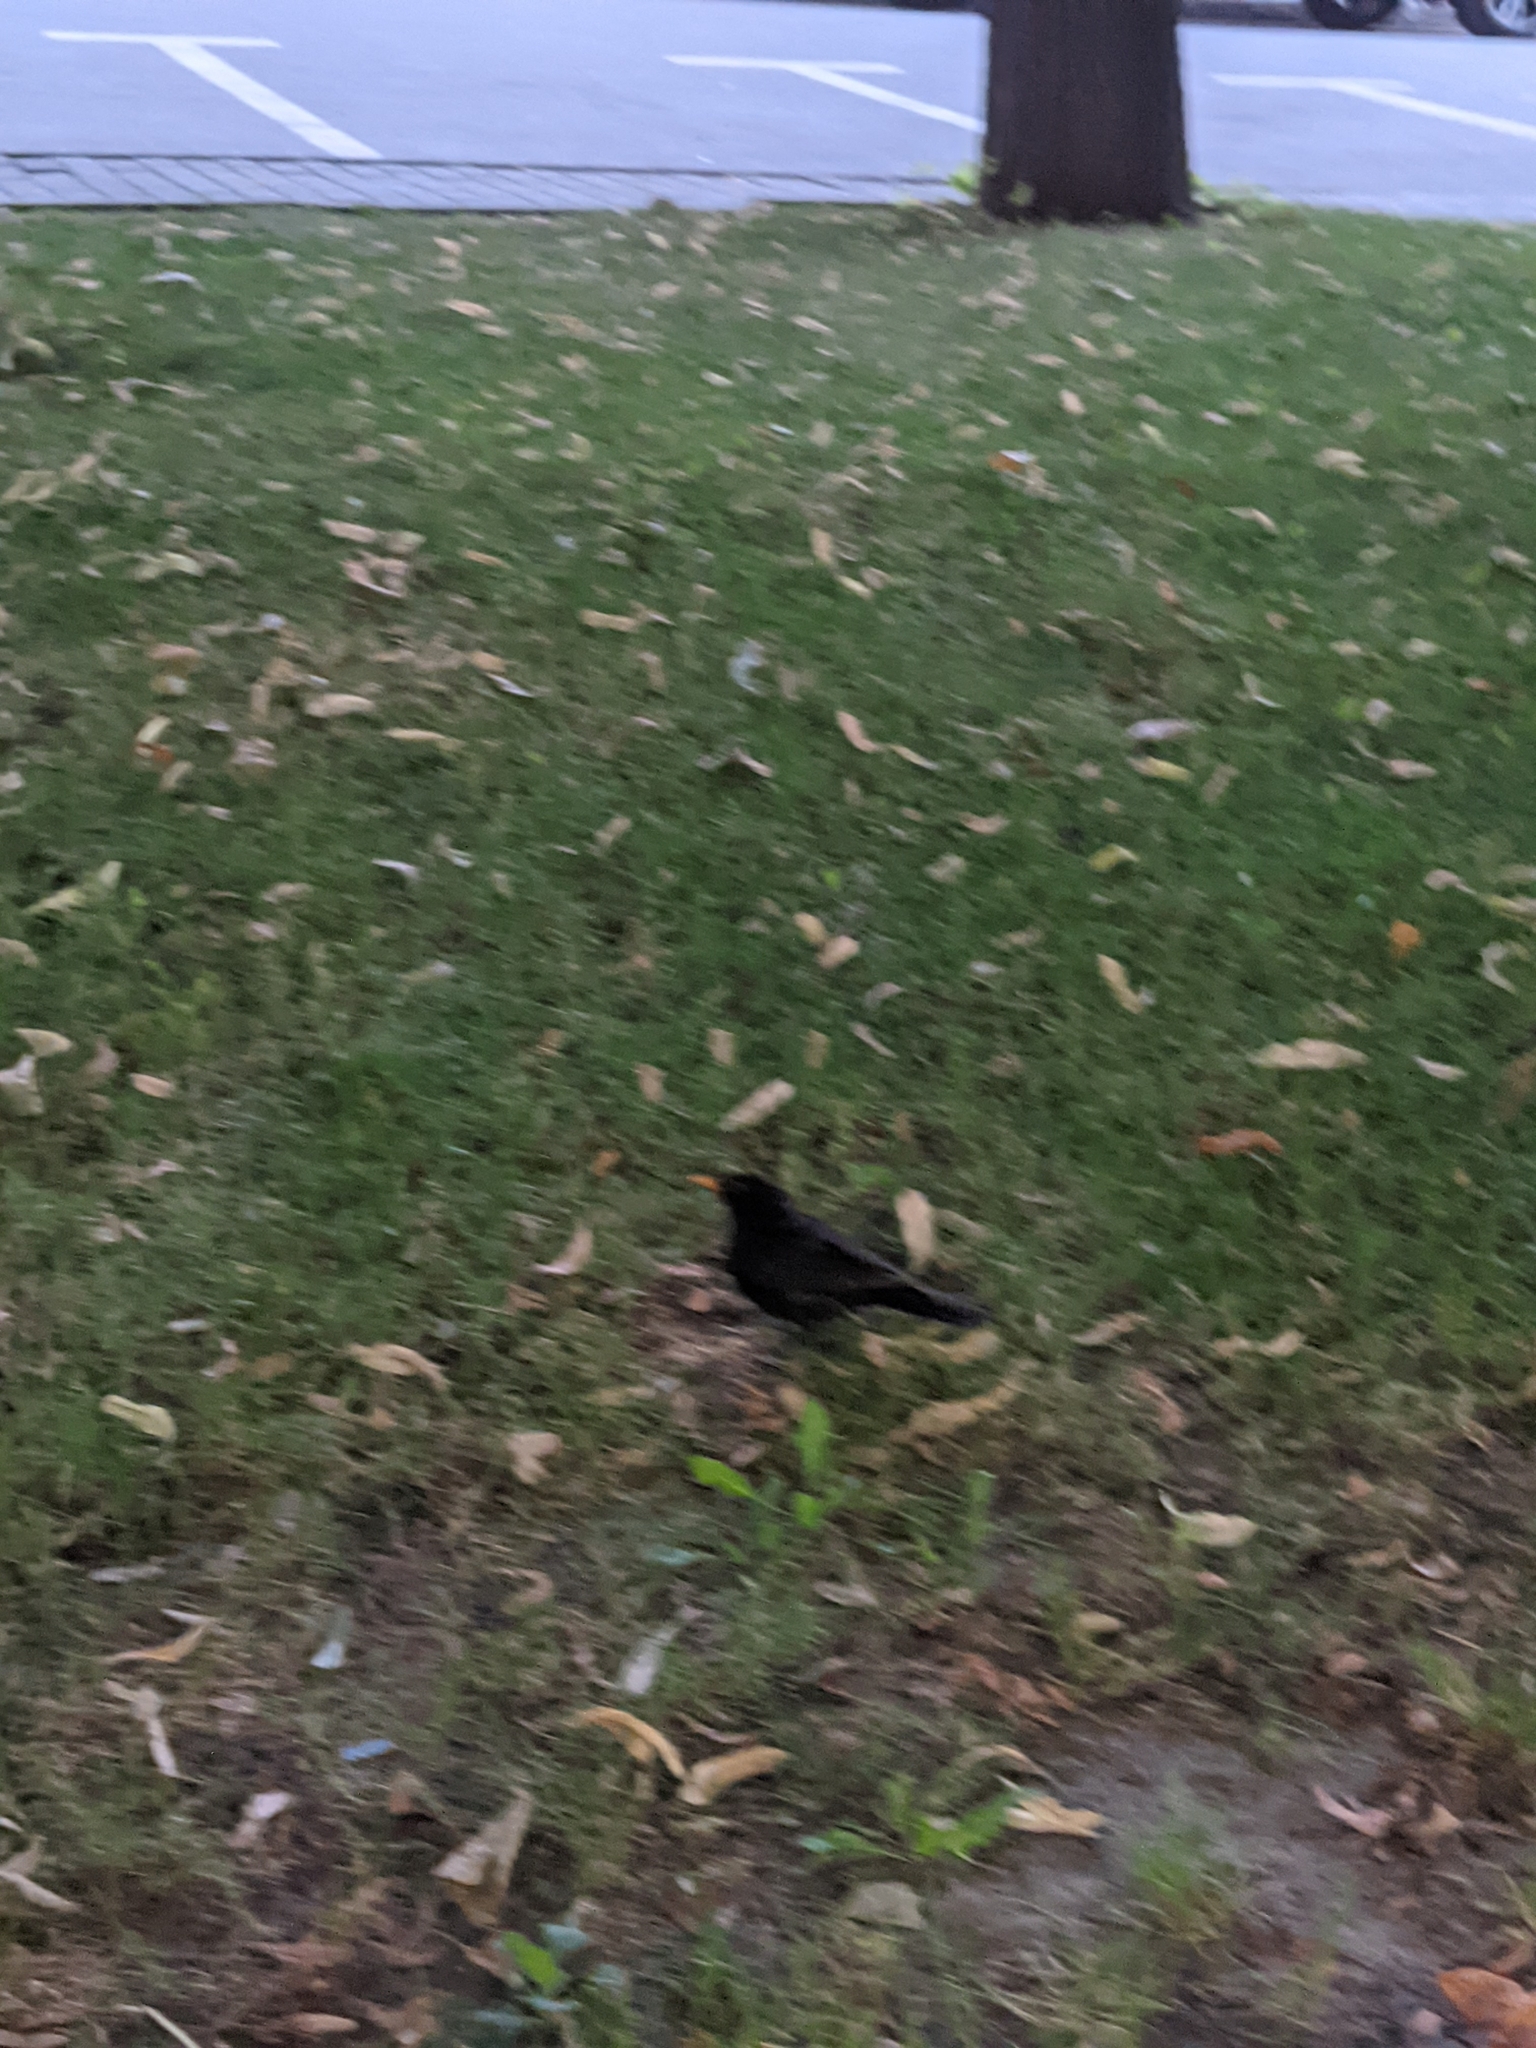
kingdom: Animalia
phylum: Chordata
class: Aves
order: Passeriformes
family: Turdidae
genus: Turdus
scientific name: Turdus merula
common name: Common blackbird
